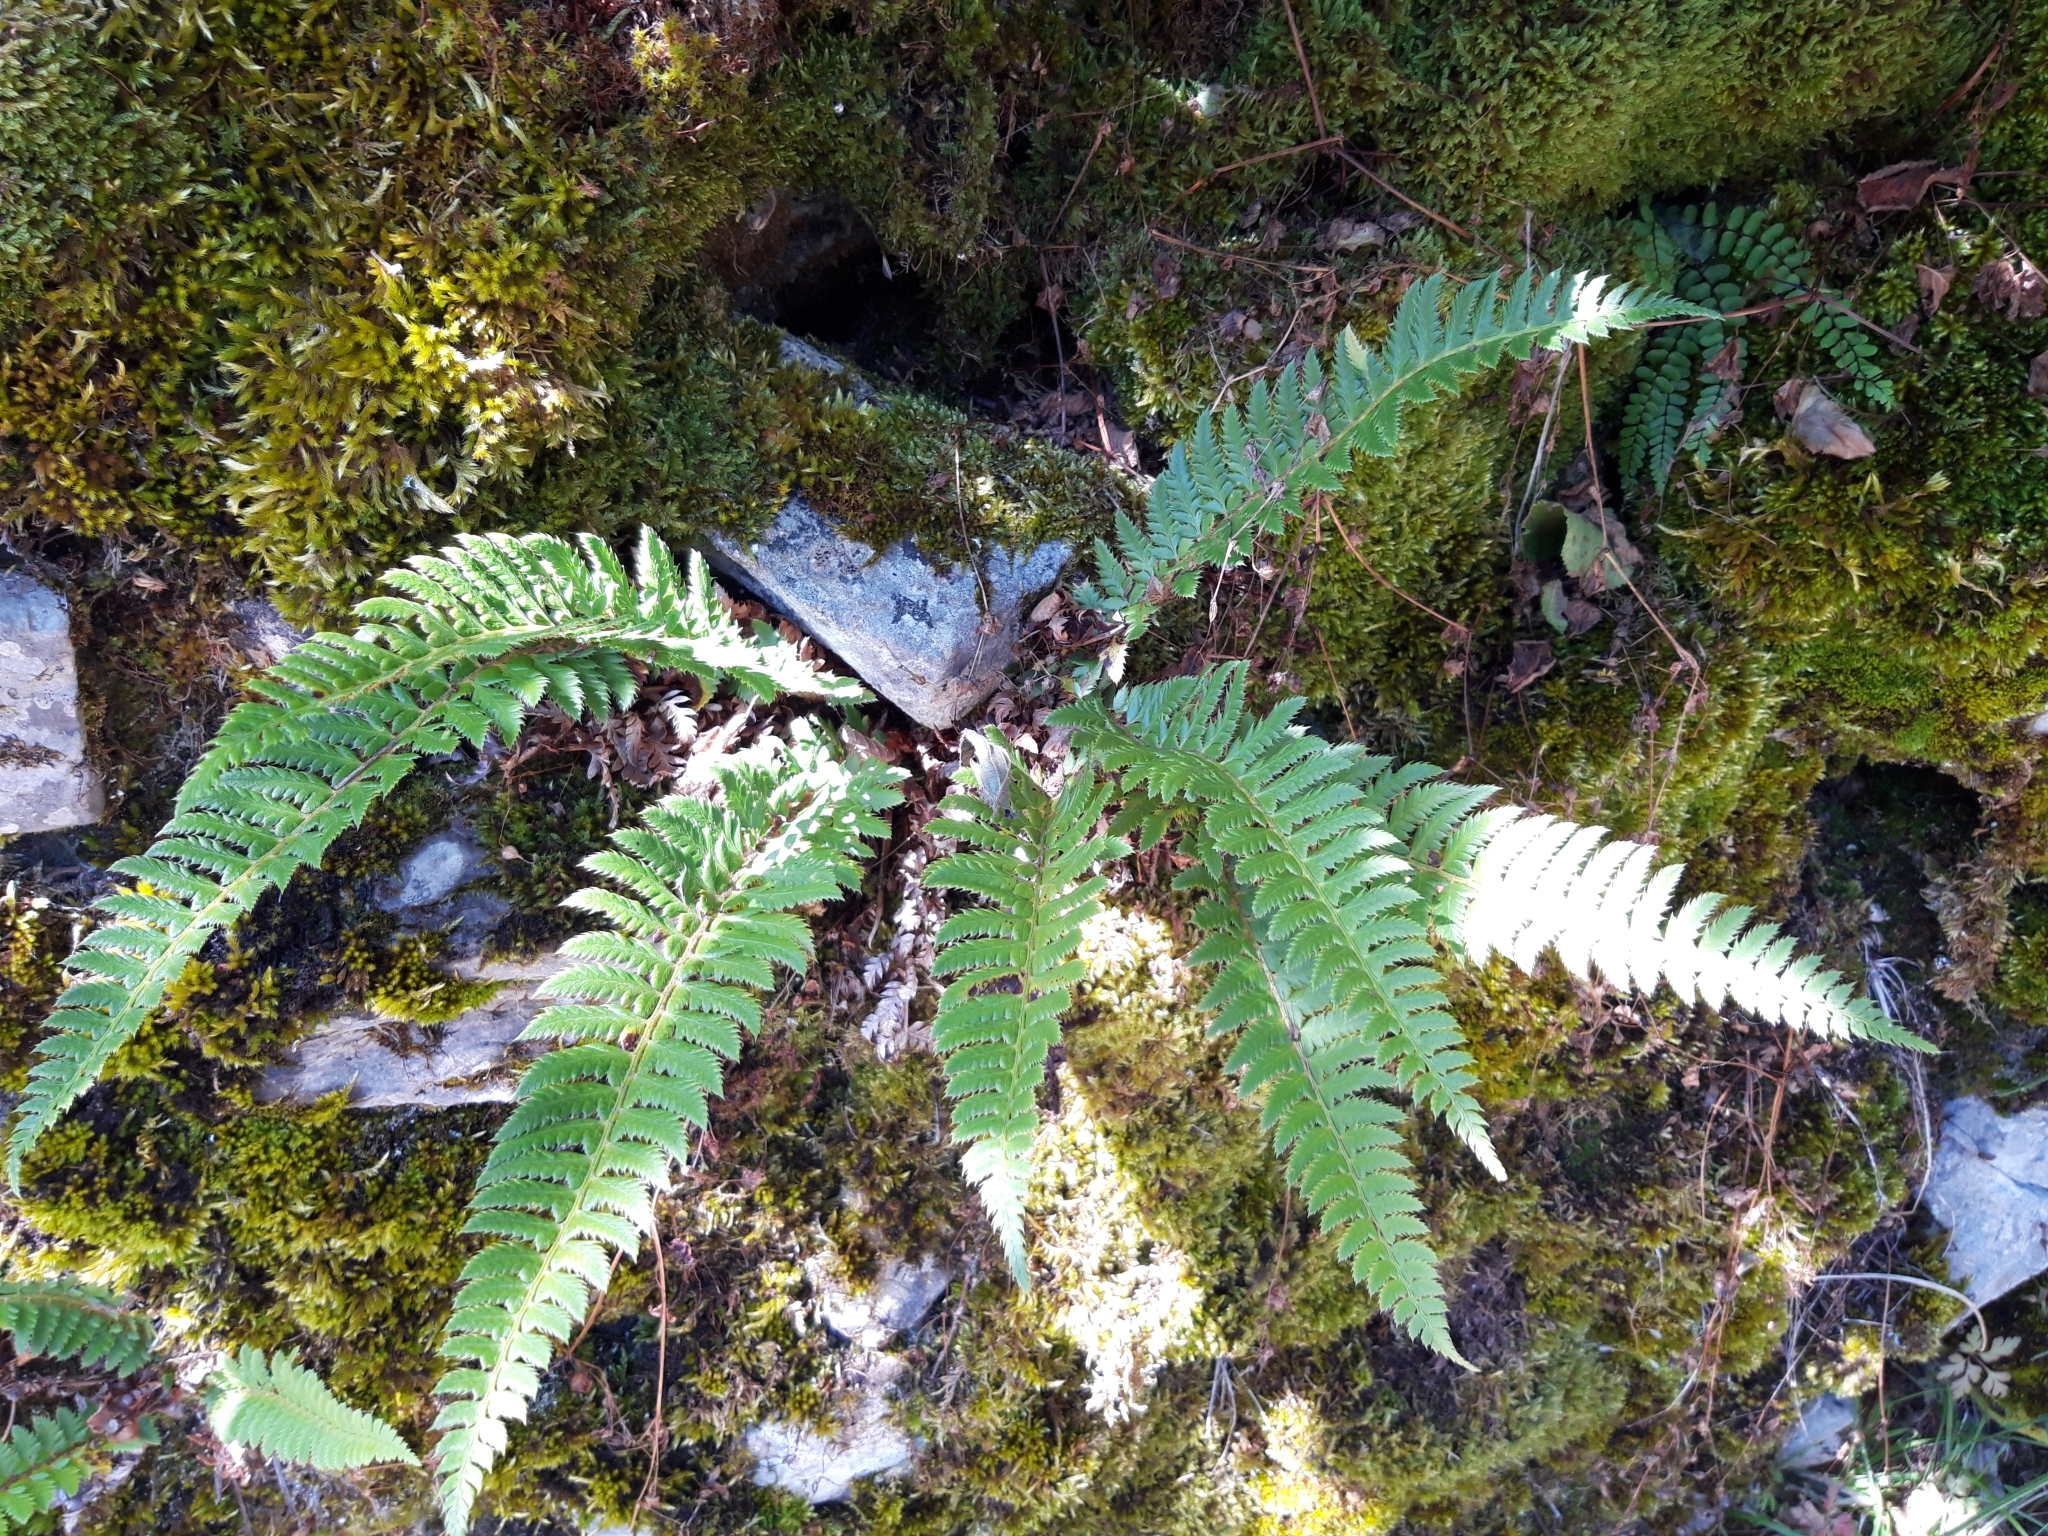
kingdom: Plantae
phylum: Tracheophyta
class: Polypodiopsida
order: Polypodiales
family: Dryopteridaceae
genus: Polystichum
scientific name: Polystichum aculeatum
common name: Hard shield-fern
